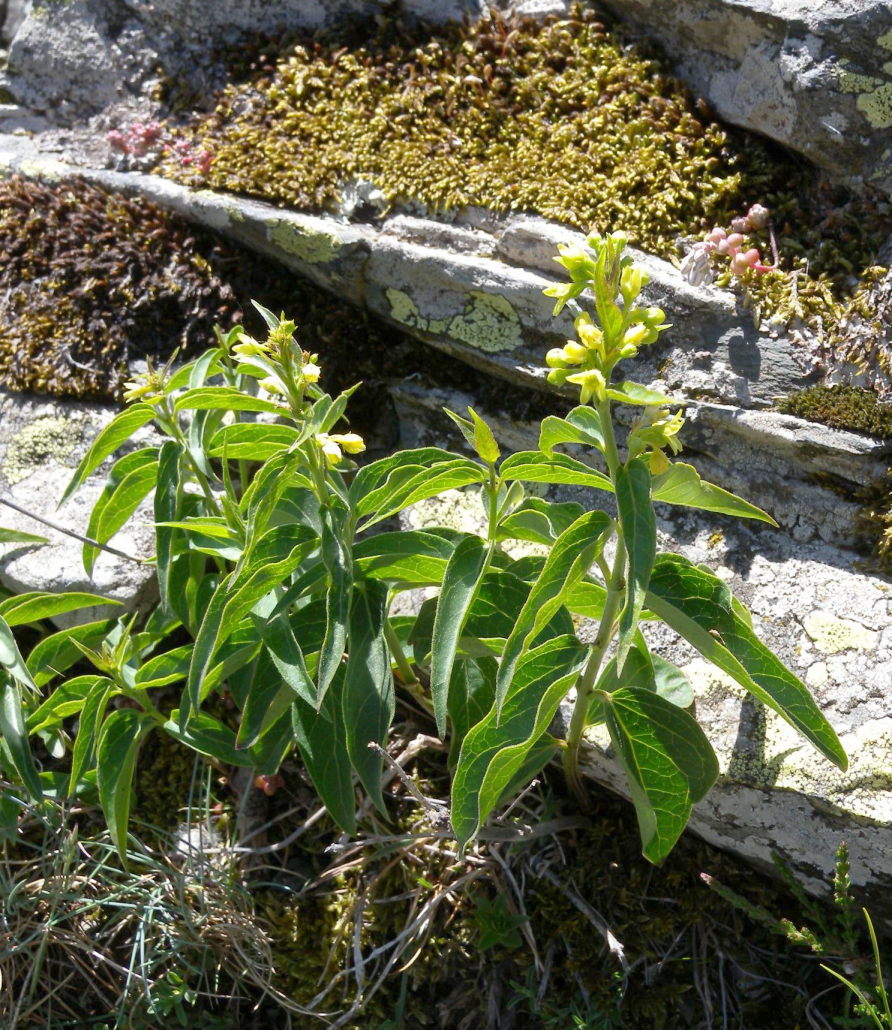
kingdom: Plantae
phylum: Tracheophyta
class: Magnoliopsida
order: Gentianales
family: Apocynaceae
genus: Vincetoxicum
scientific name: Vincetoxicum hirundinaria
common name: White swallowwort
